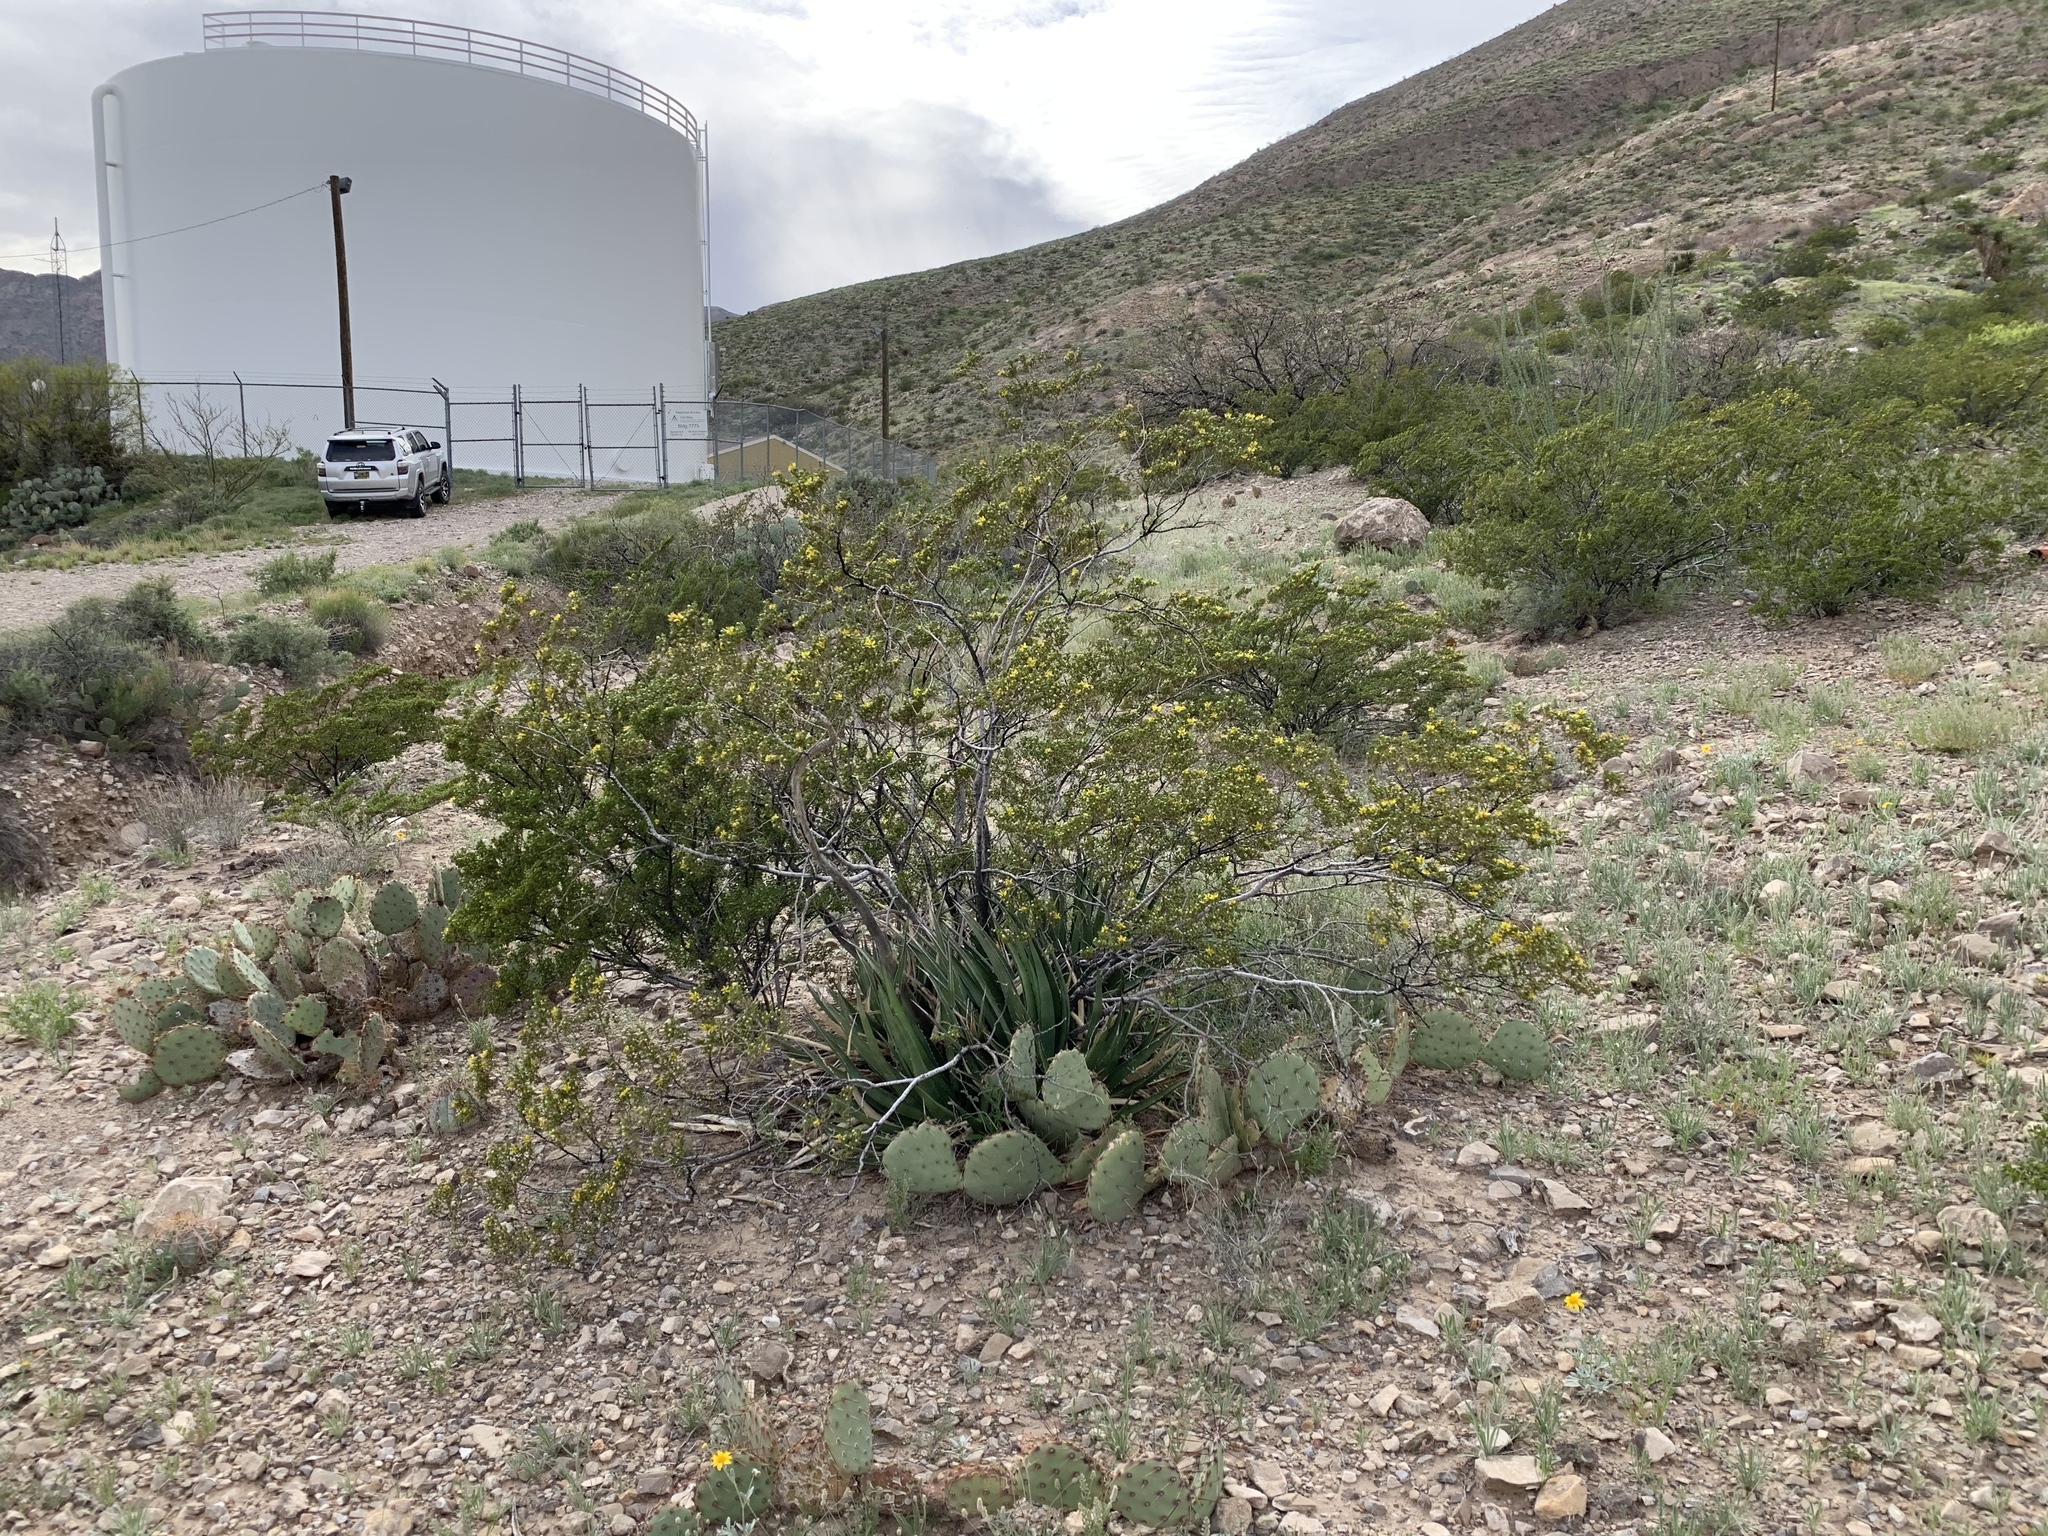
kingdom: Plantae
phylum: Tracheophyta
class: Magnoliopsida
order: Zygophyllales
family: Zygophyllaceae
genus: Larrea
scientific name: Larrea tridentata
